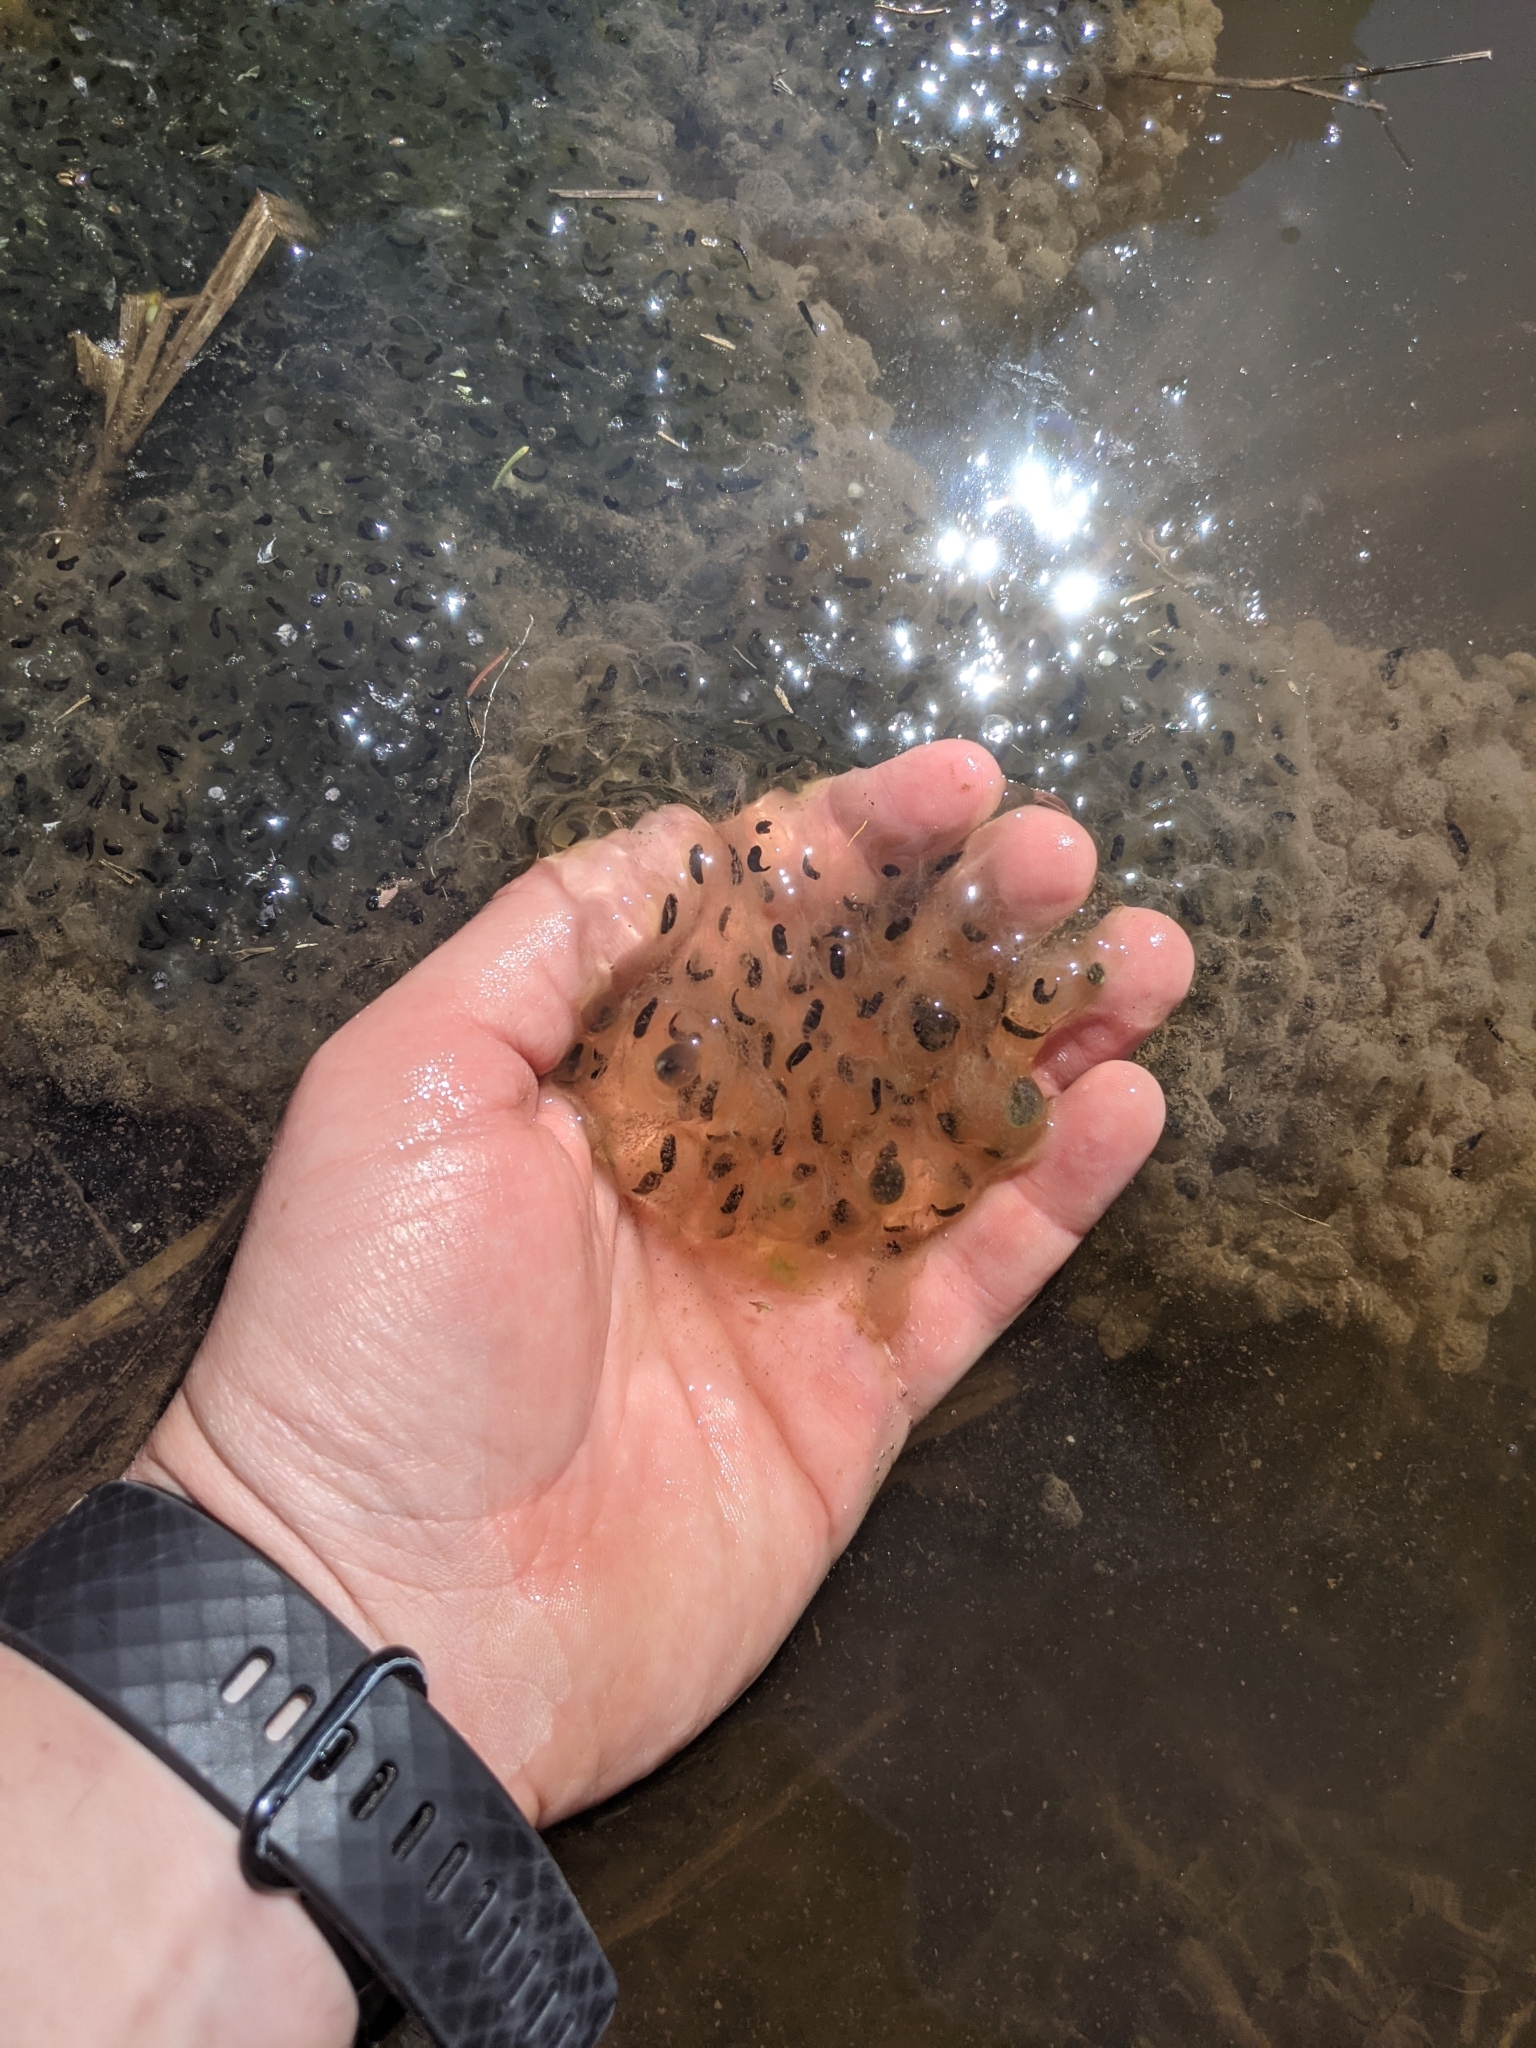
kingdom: Animalia
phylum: Chordata
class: Amphibia
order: Anura
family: Ranidae
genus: Lithobates
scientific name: Lithobates sylvaticus
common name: Wood frog
